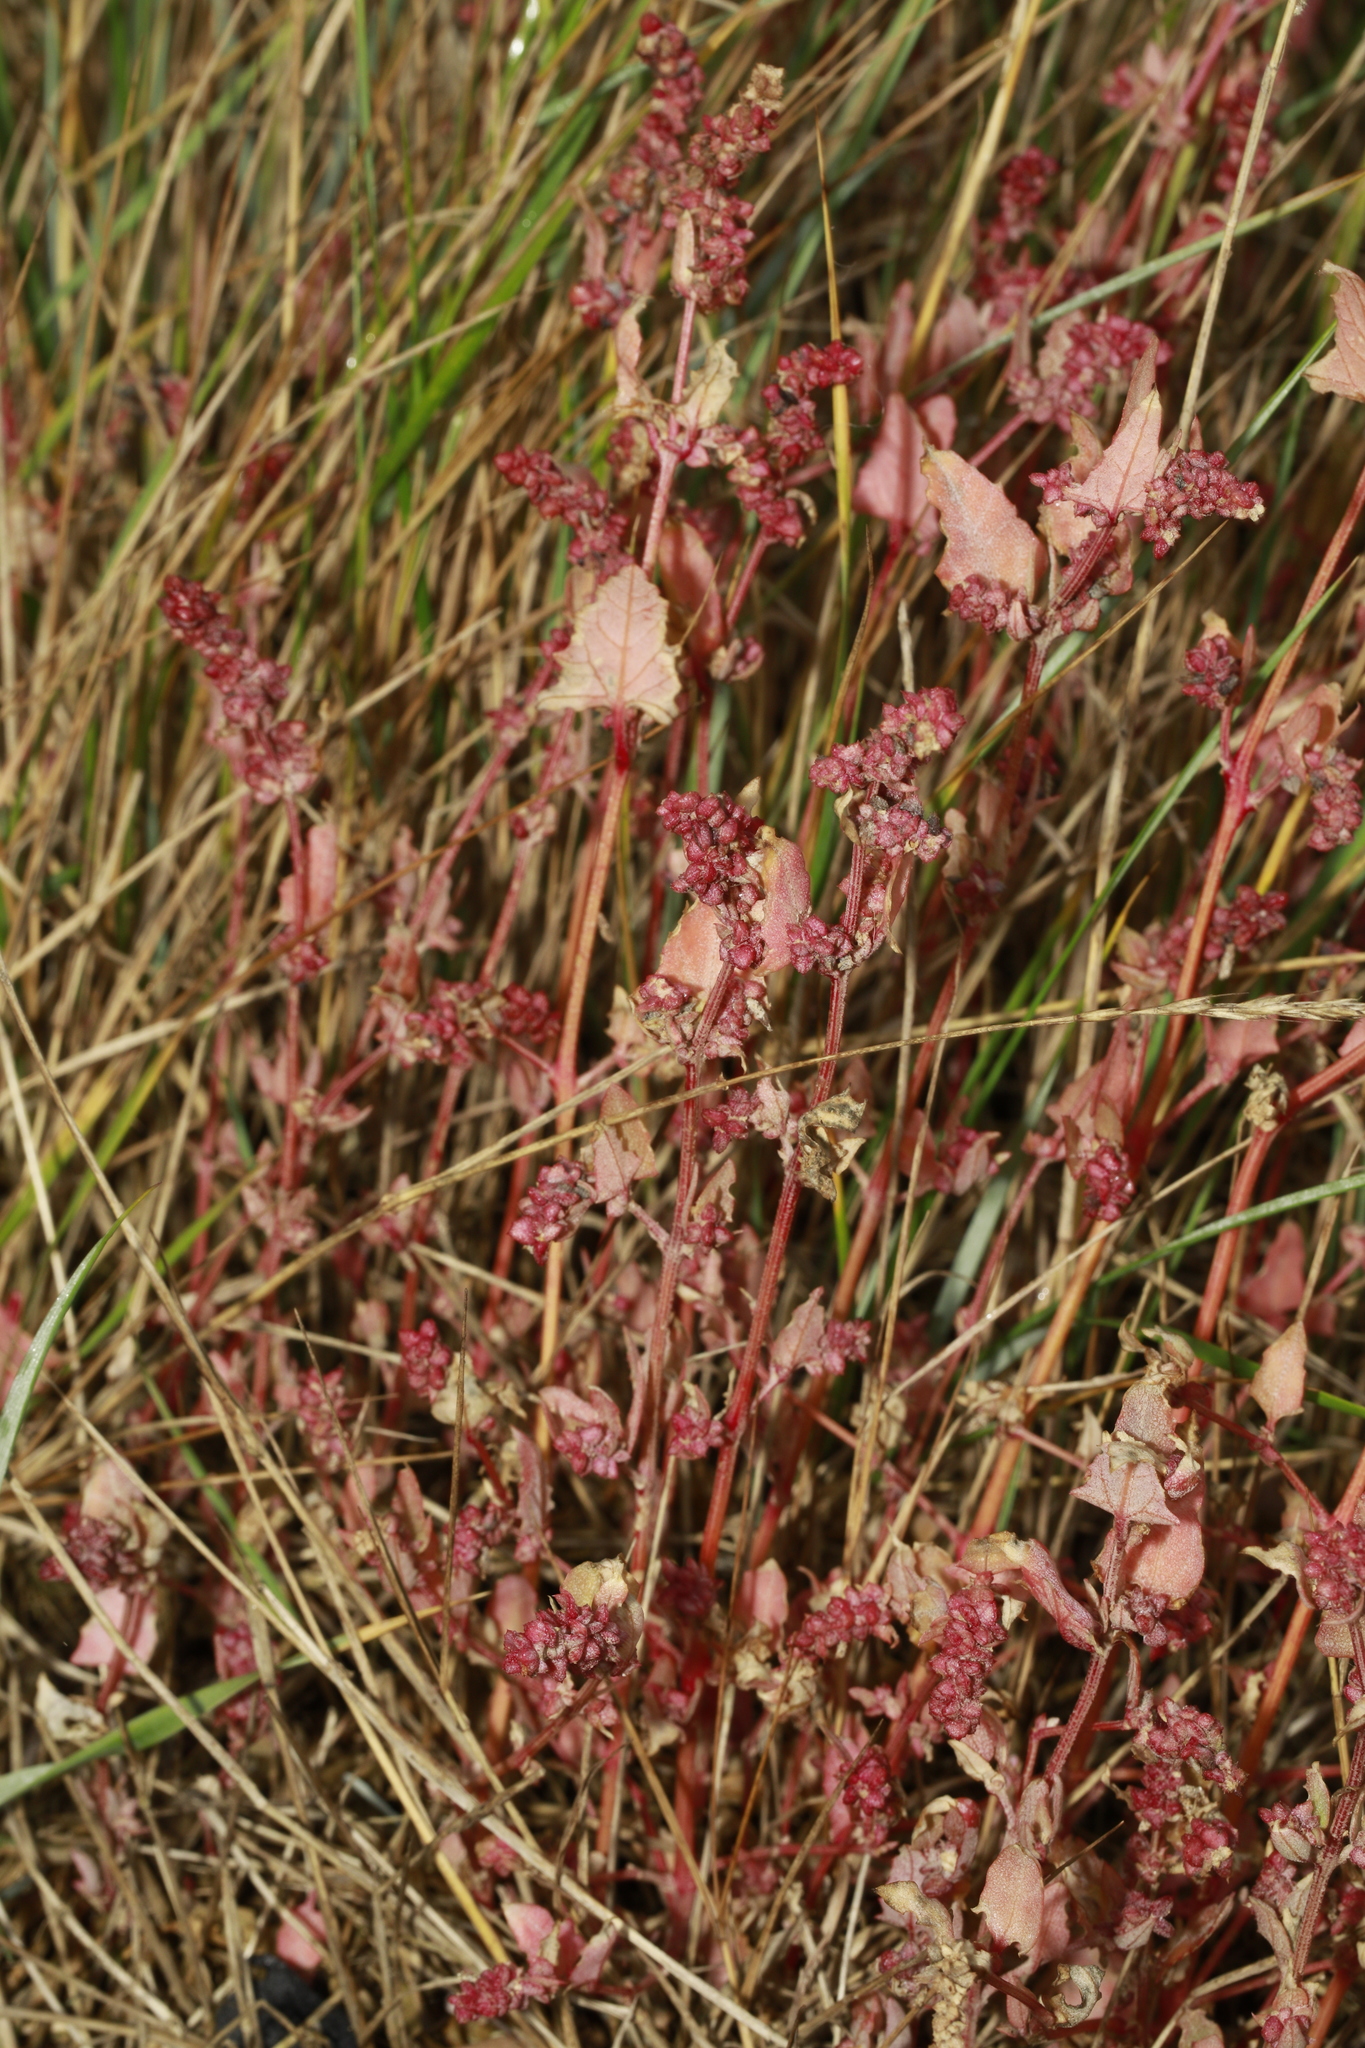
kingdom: Plantae
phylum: Tracheophyta
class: Magnoliopsida
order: Caryophyllales
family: Amaranthaceae
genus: Atriplex
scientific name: Atriplex prostrata
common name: Spear-leaved orache
